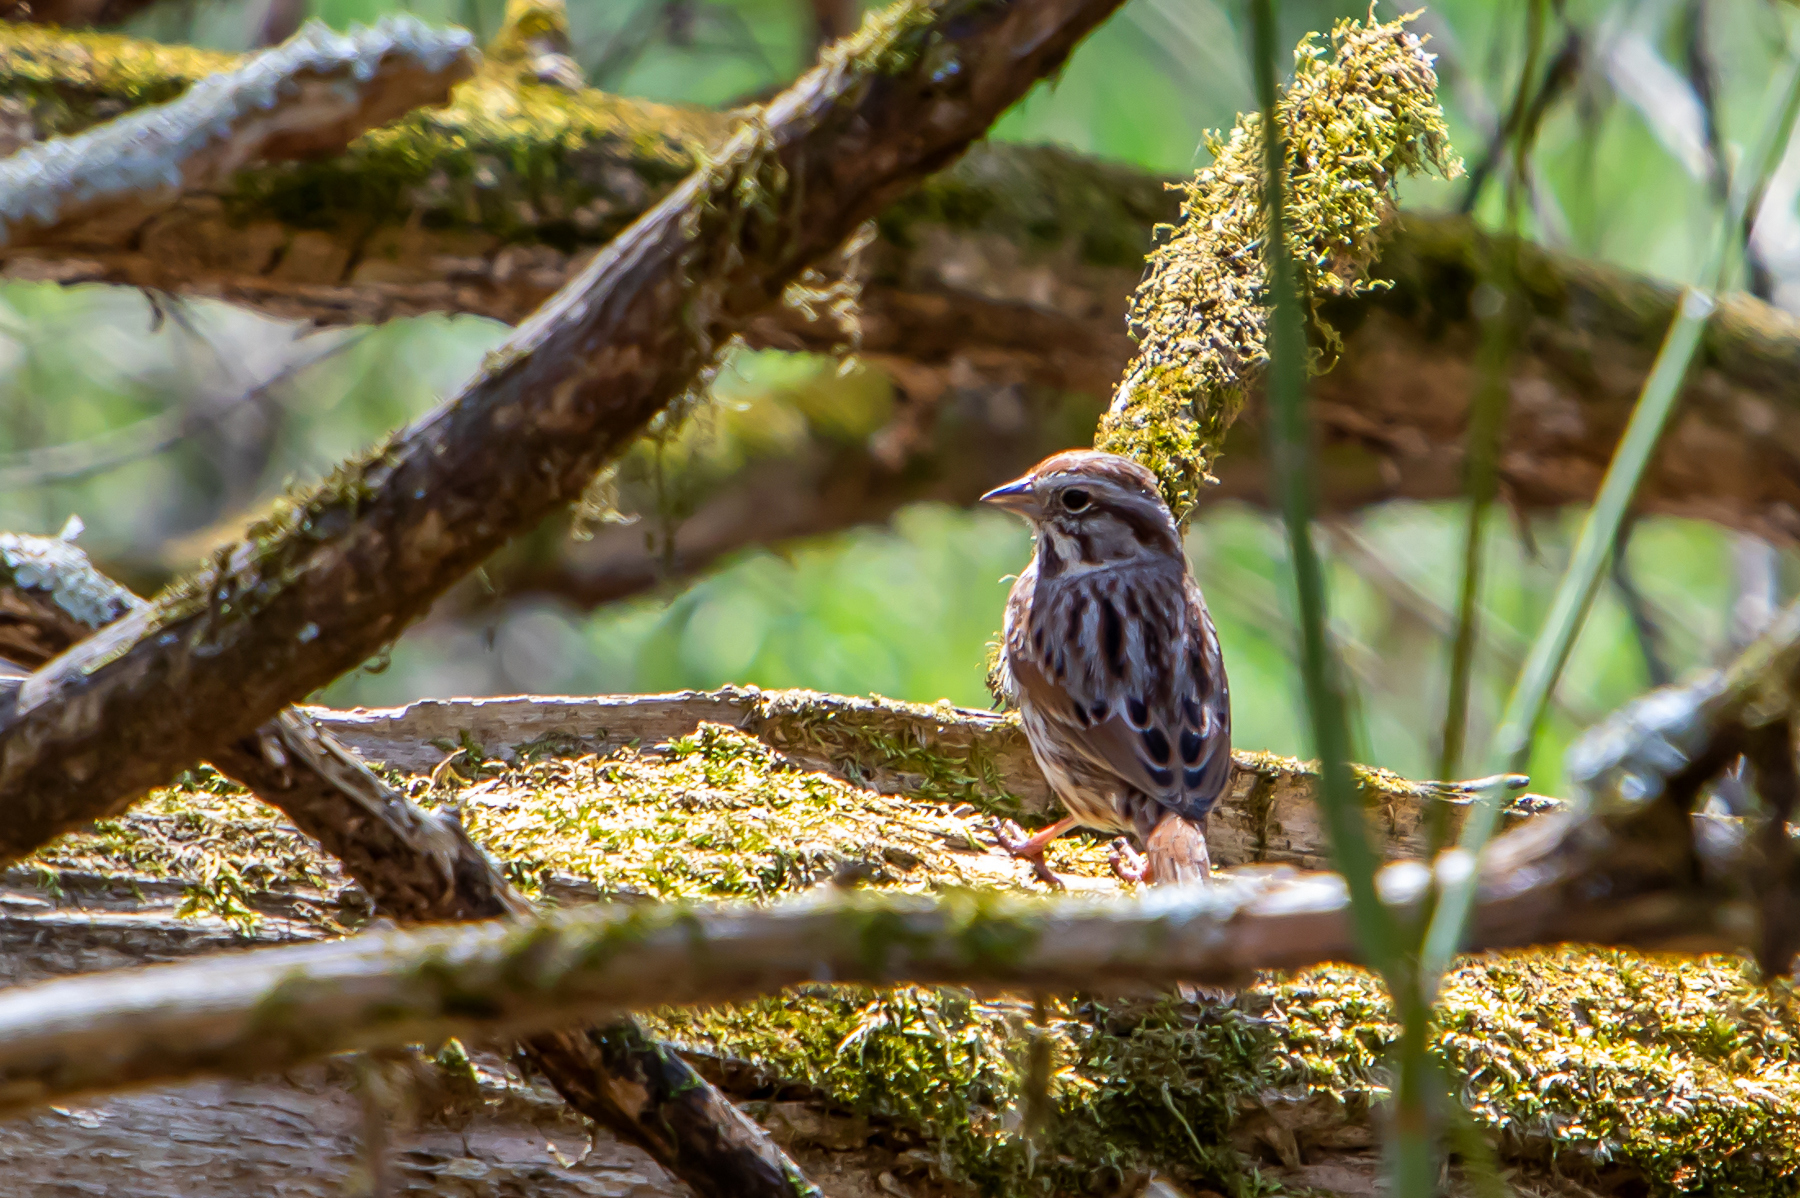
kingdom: Animalia
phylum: Chordata
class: Aves
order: Passeriformes
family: Passerellidae
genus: Melospiza
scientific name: Melospiza melodia
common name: Song sparrow
